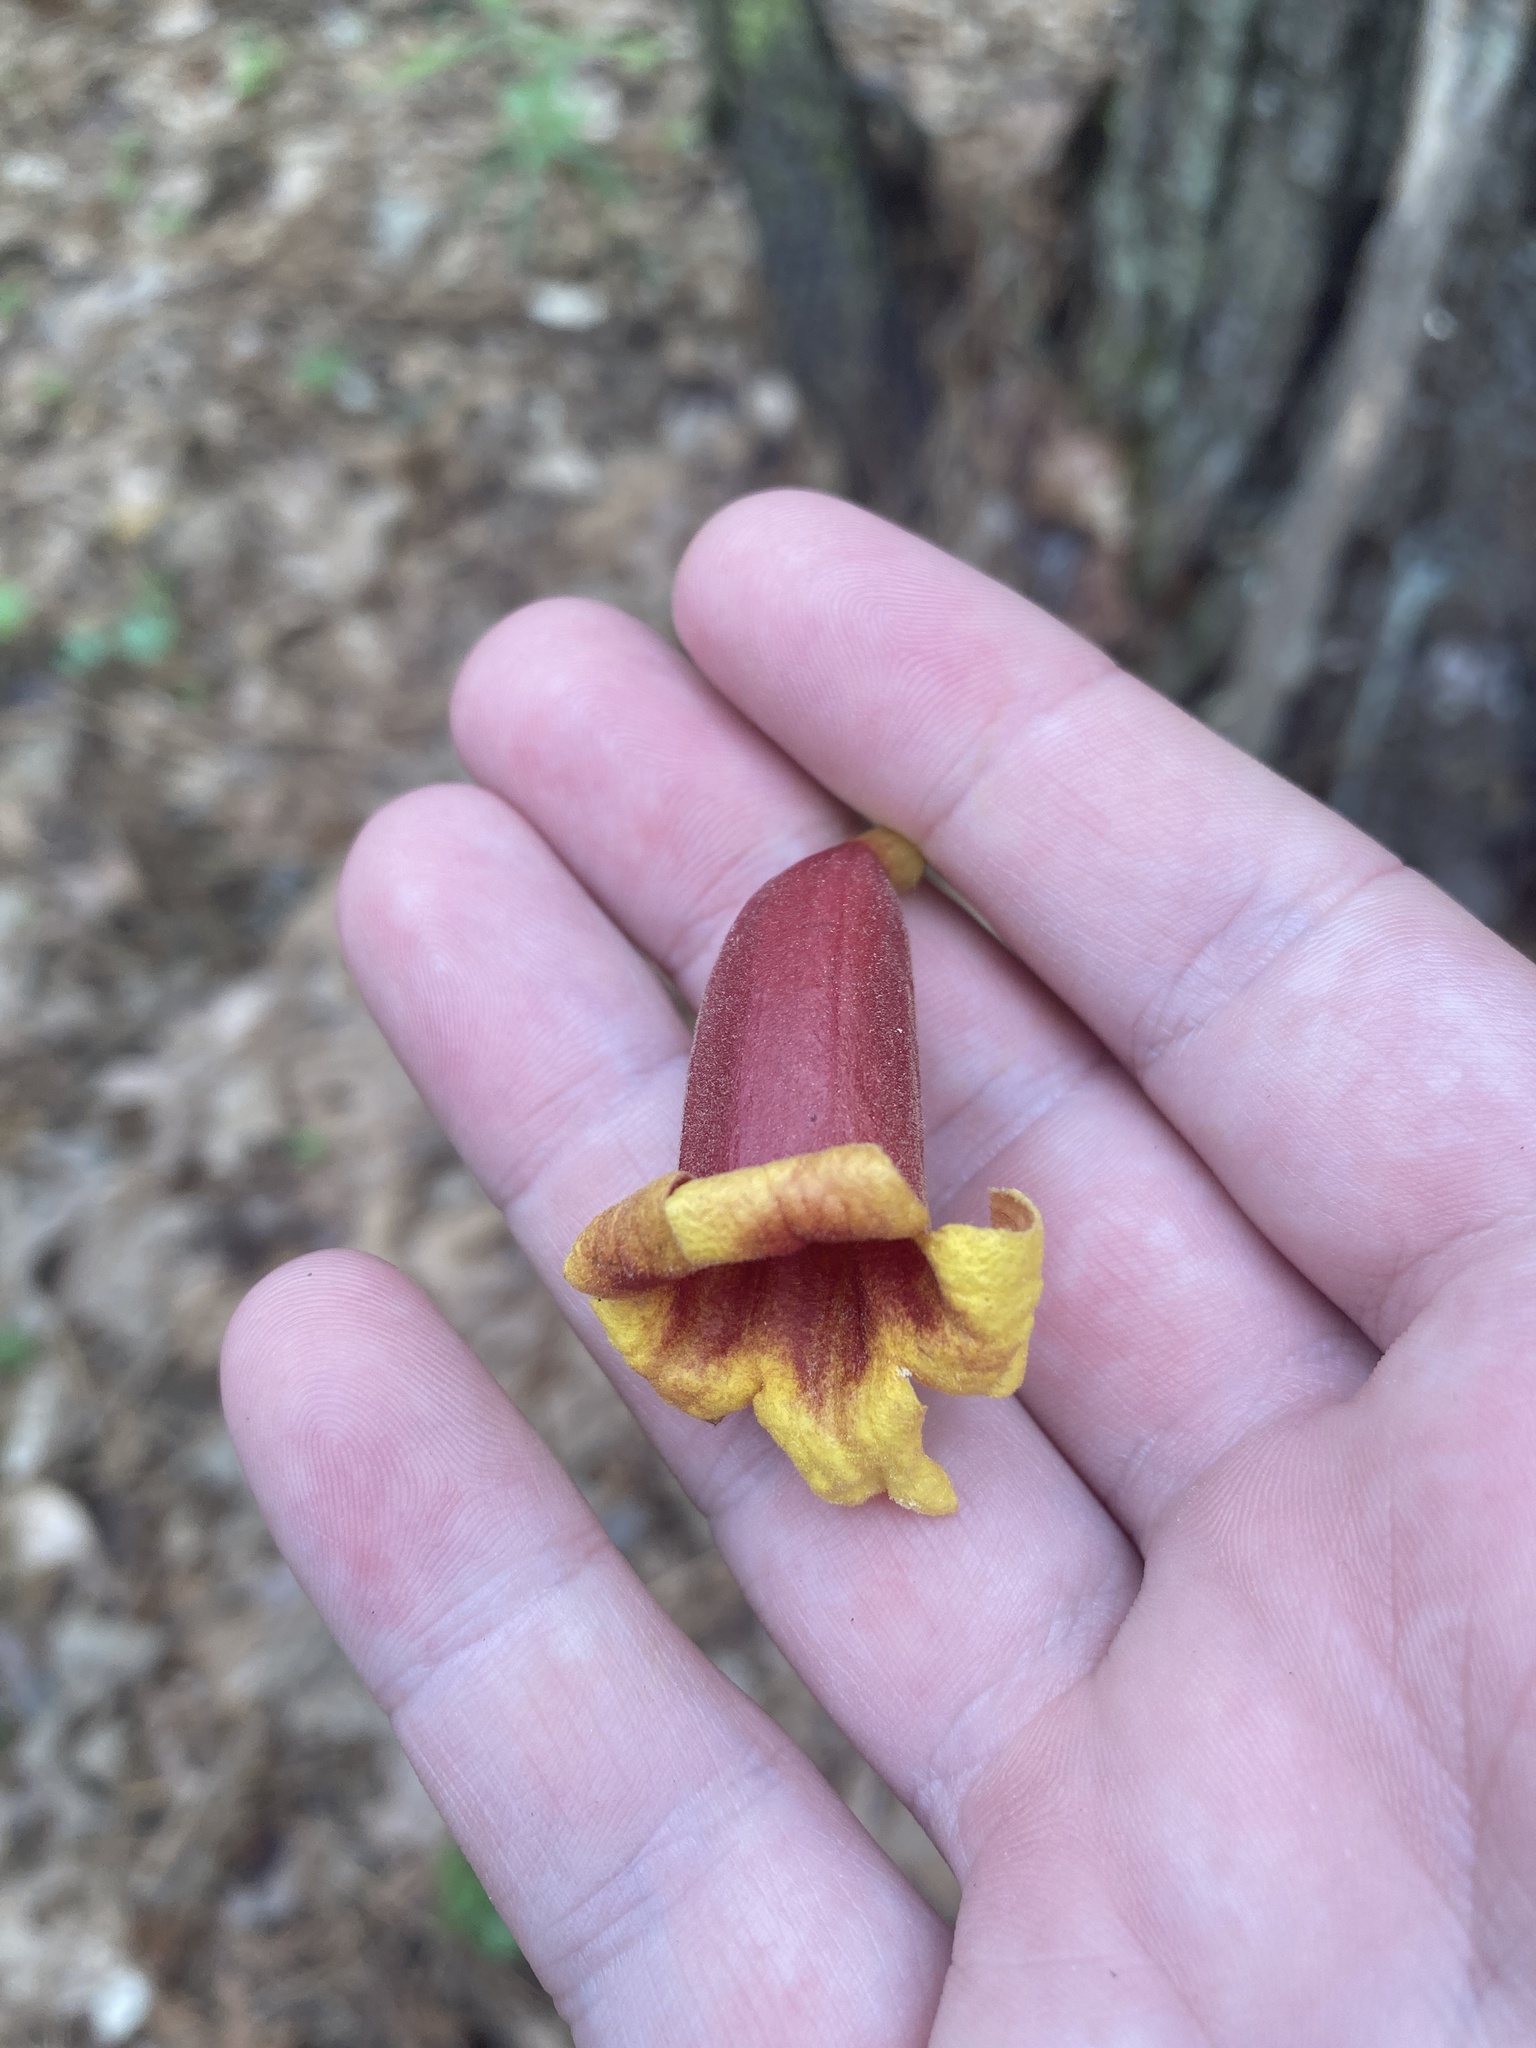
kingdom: Plantae
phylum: Tracheophyta
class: Magnoliopsida
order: Lamiales
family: Bignoniaceae
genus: Bignonia
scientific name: Bignonia capreolata
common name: Crossvine
